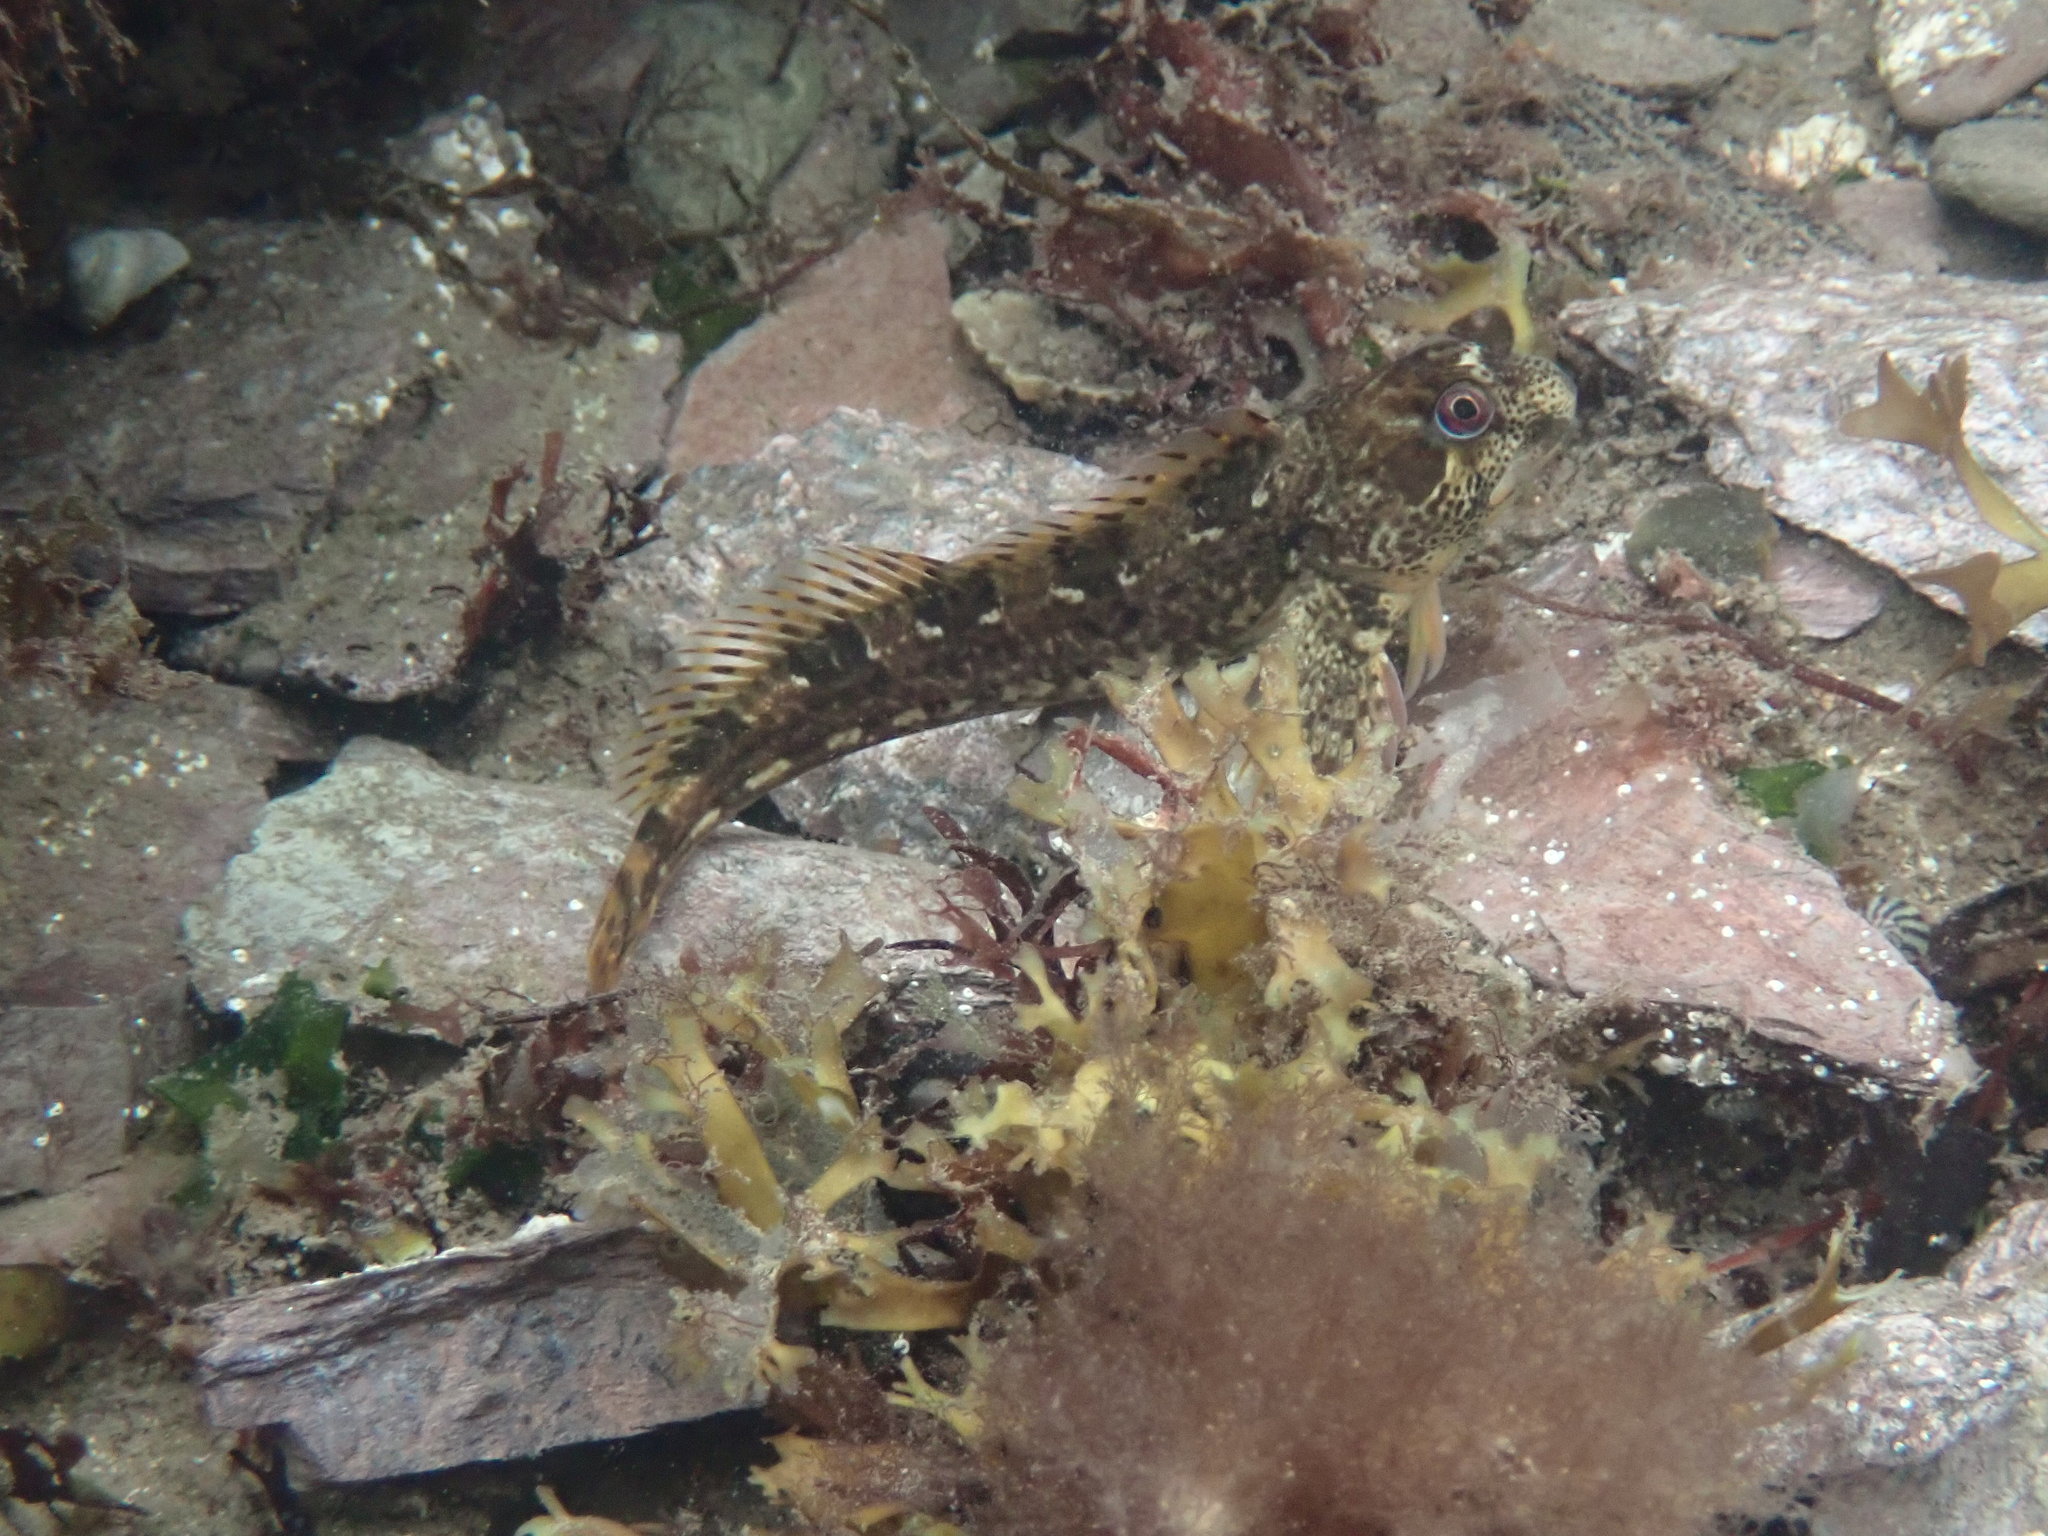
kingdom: Animalia
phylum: Chordata
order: Perciformes
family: Blenniidae
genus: Lipophrys
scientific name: Lipophrys pholis
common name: Shanny
